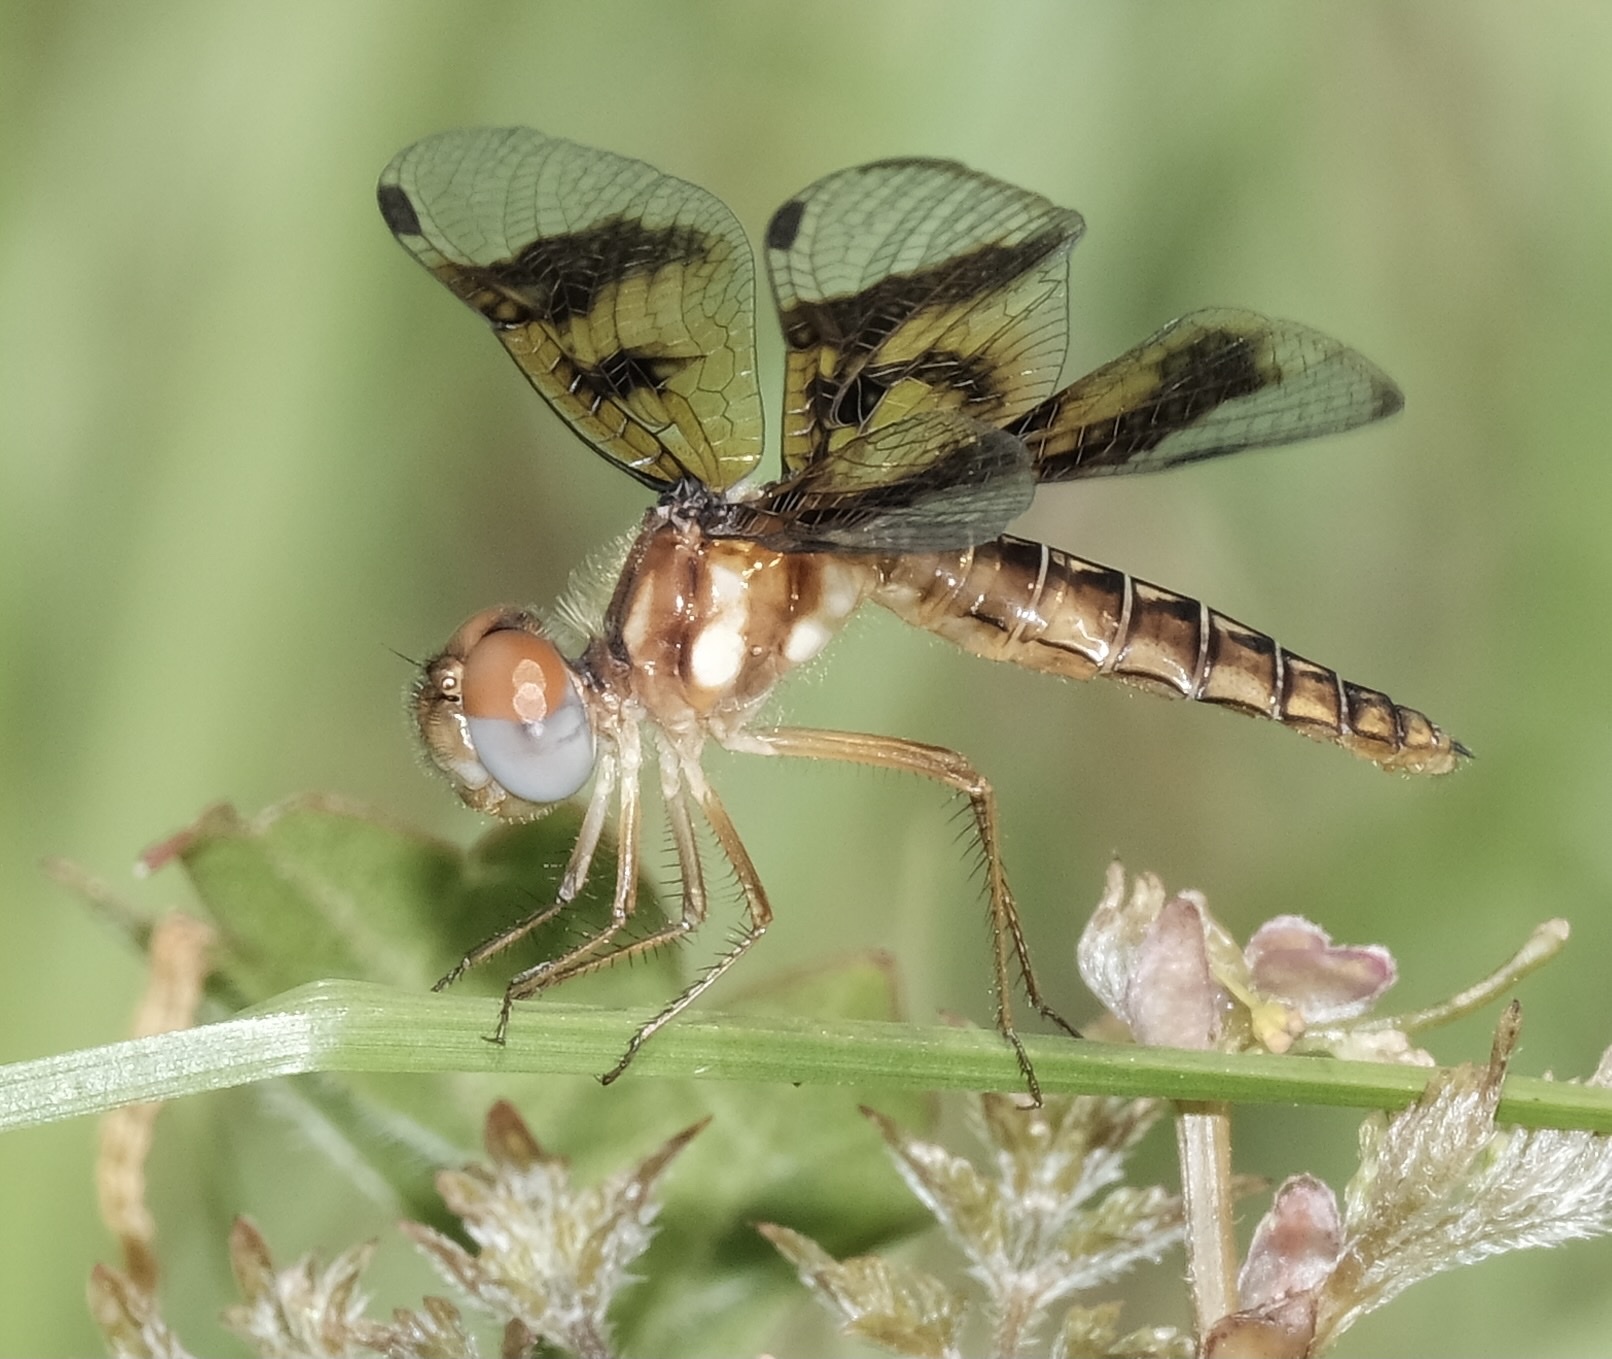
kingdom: Animalia
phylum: Arthropoda
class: Insecta
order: Odonata
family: Libellulidae
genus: Perithemis
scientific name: Perithemis tenera
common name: Eastern amberwing
